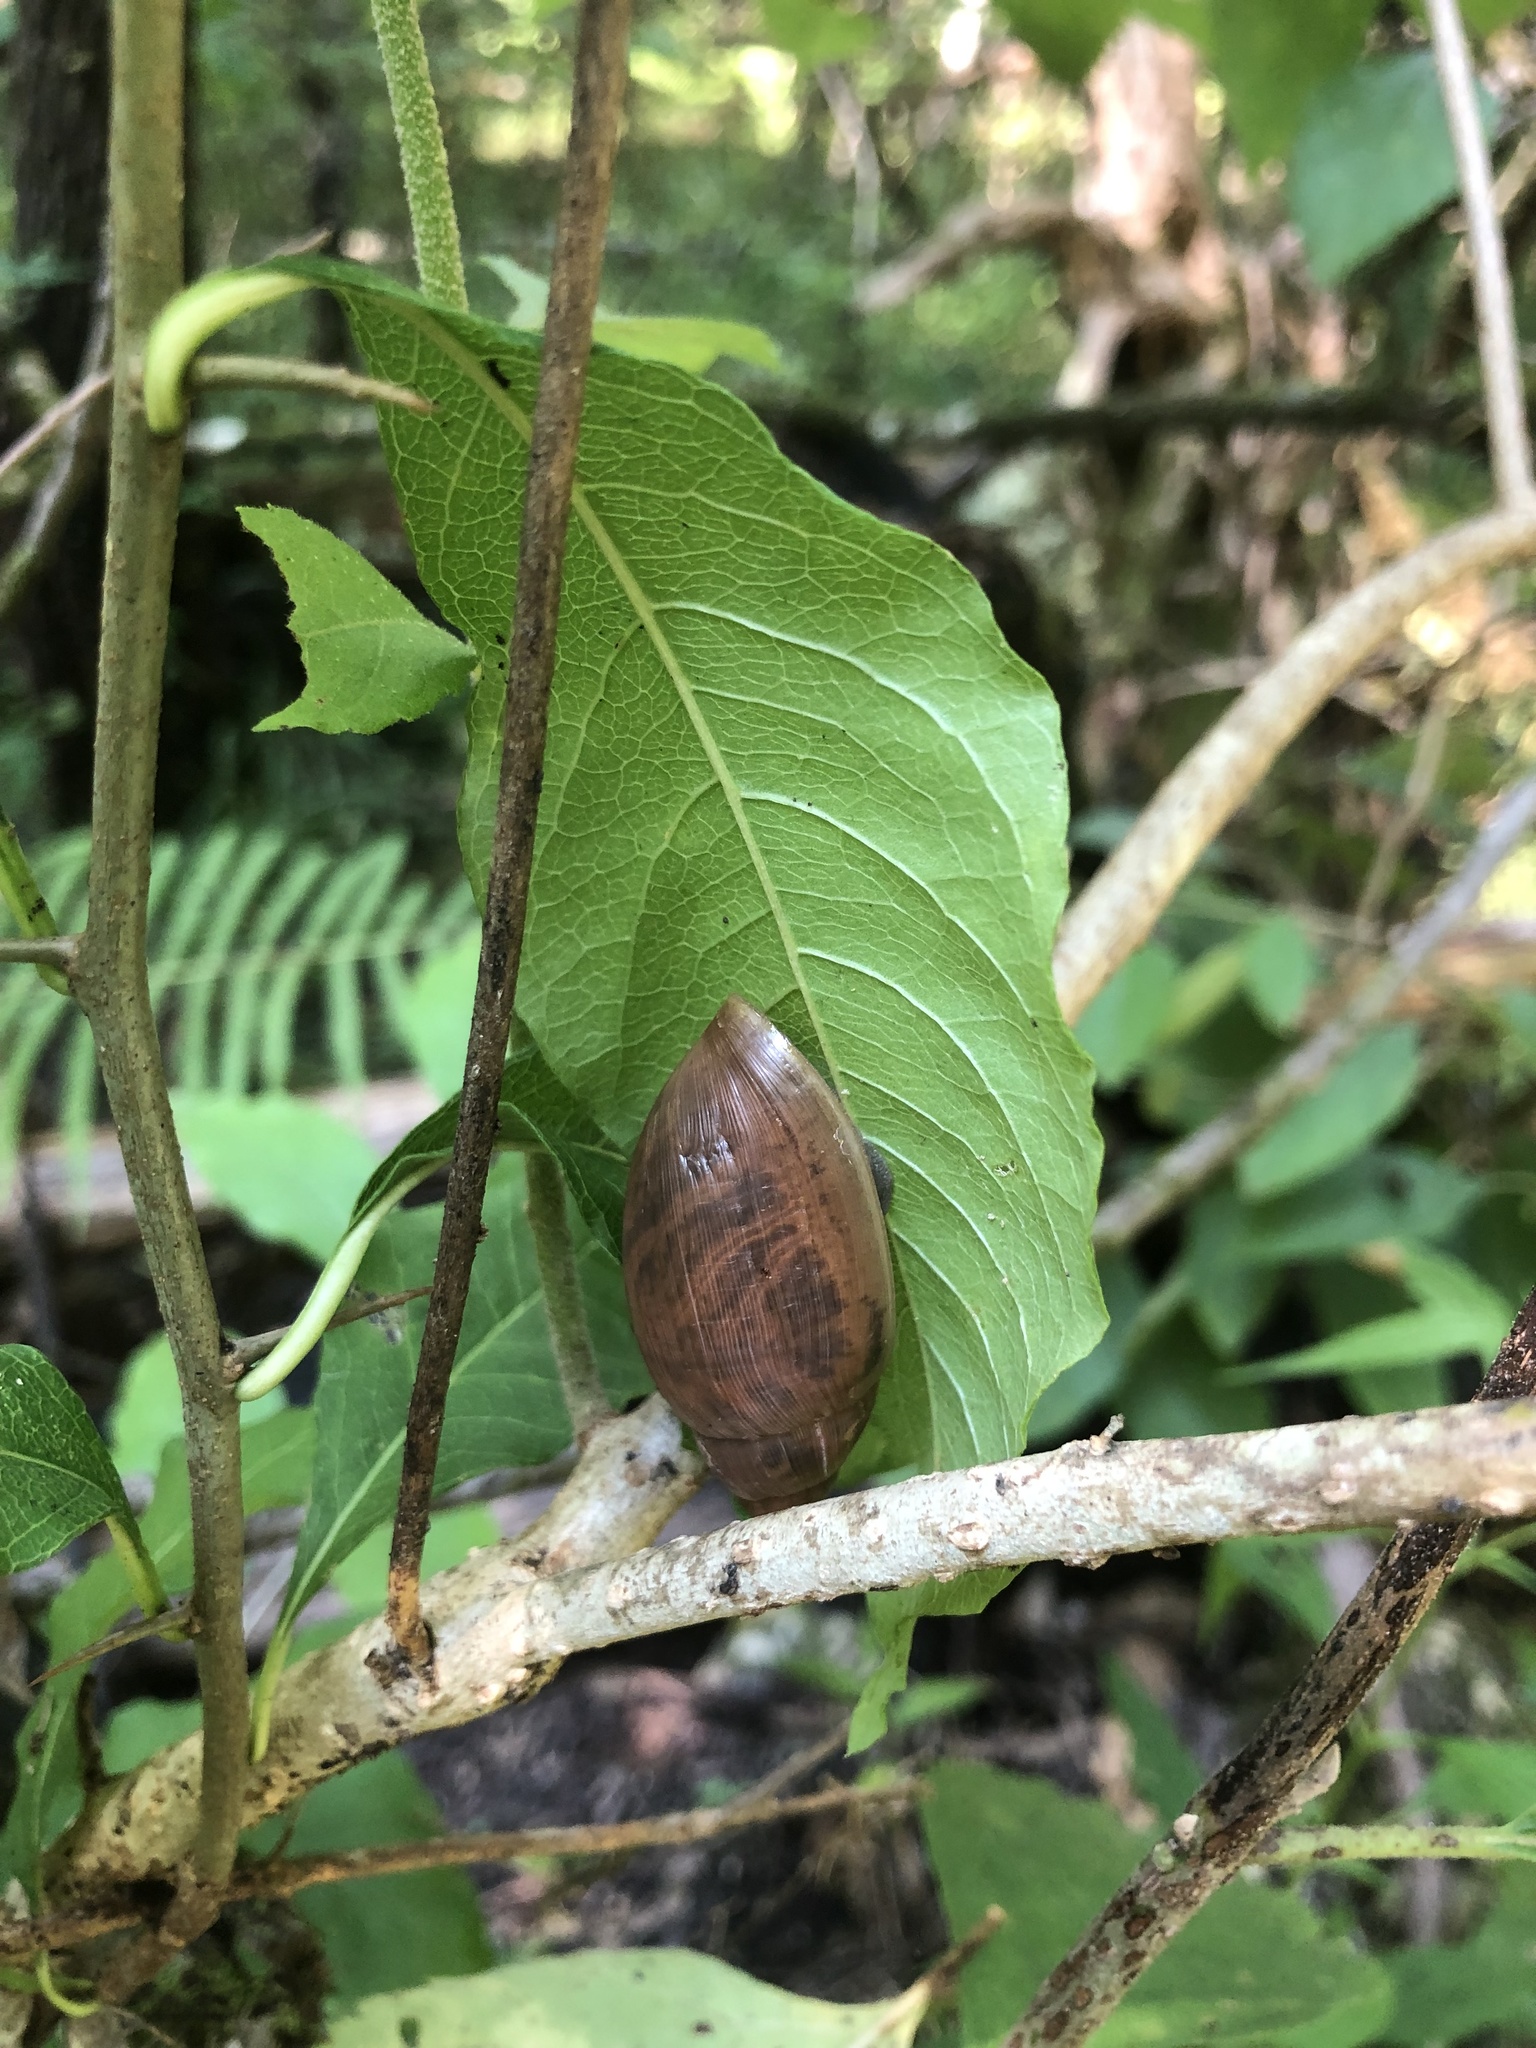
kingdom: Animalia
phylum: Mollusca
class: Gastropoda
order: Stylommatophora
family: Spiraxidae
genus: Euglandina
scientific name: Euglandina rosea
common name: Rosy wolfsnail
